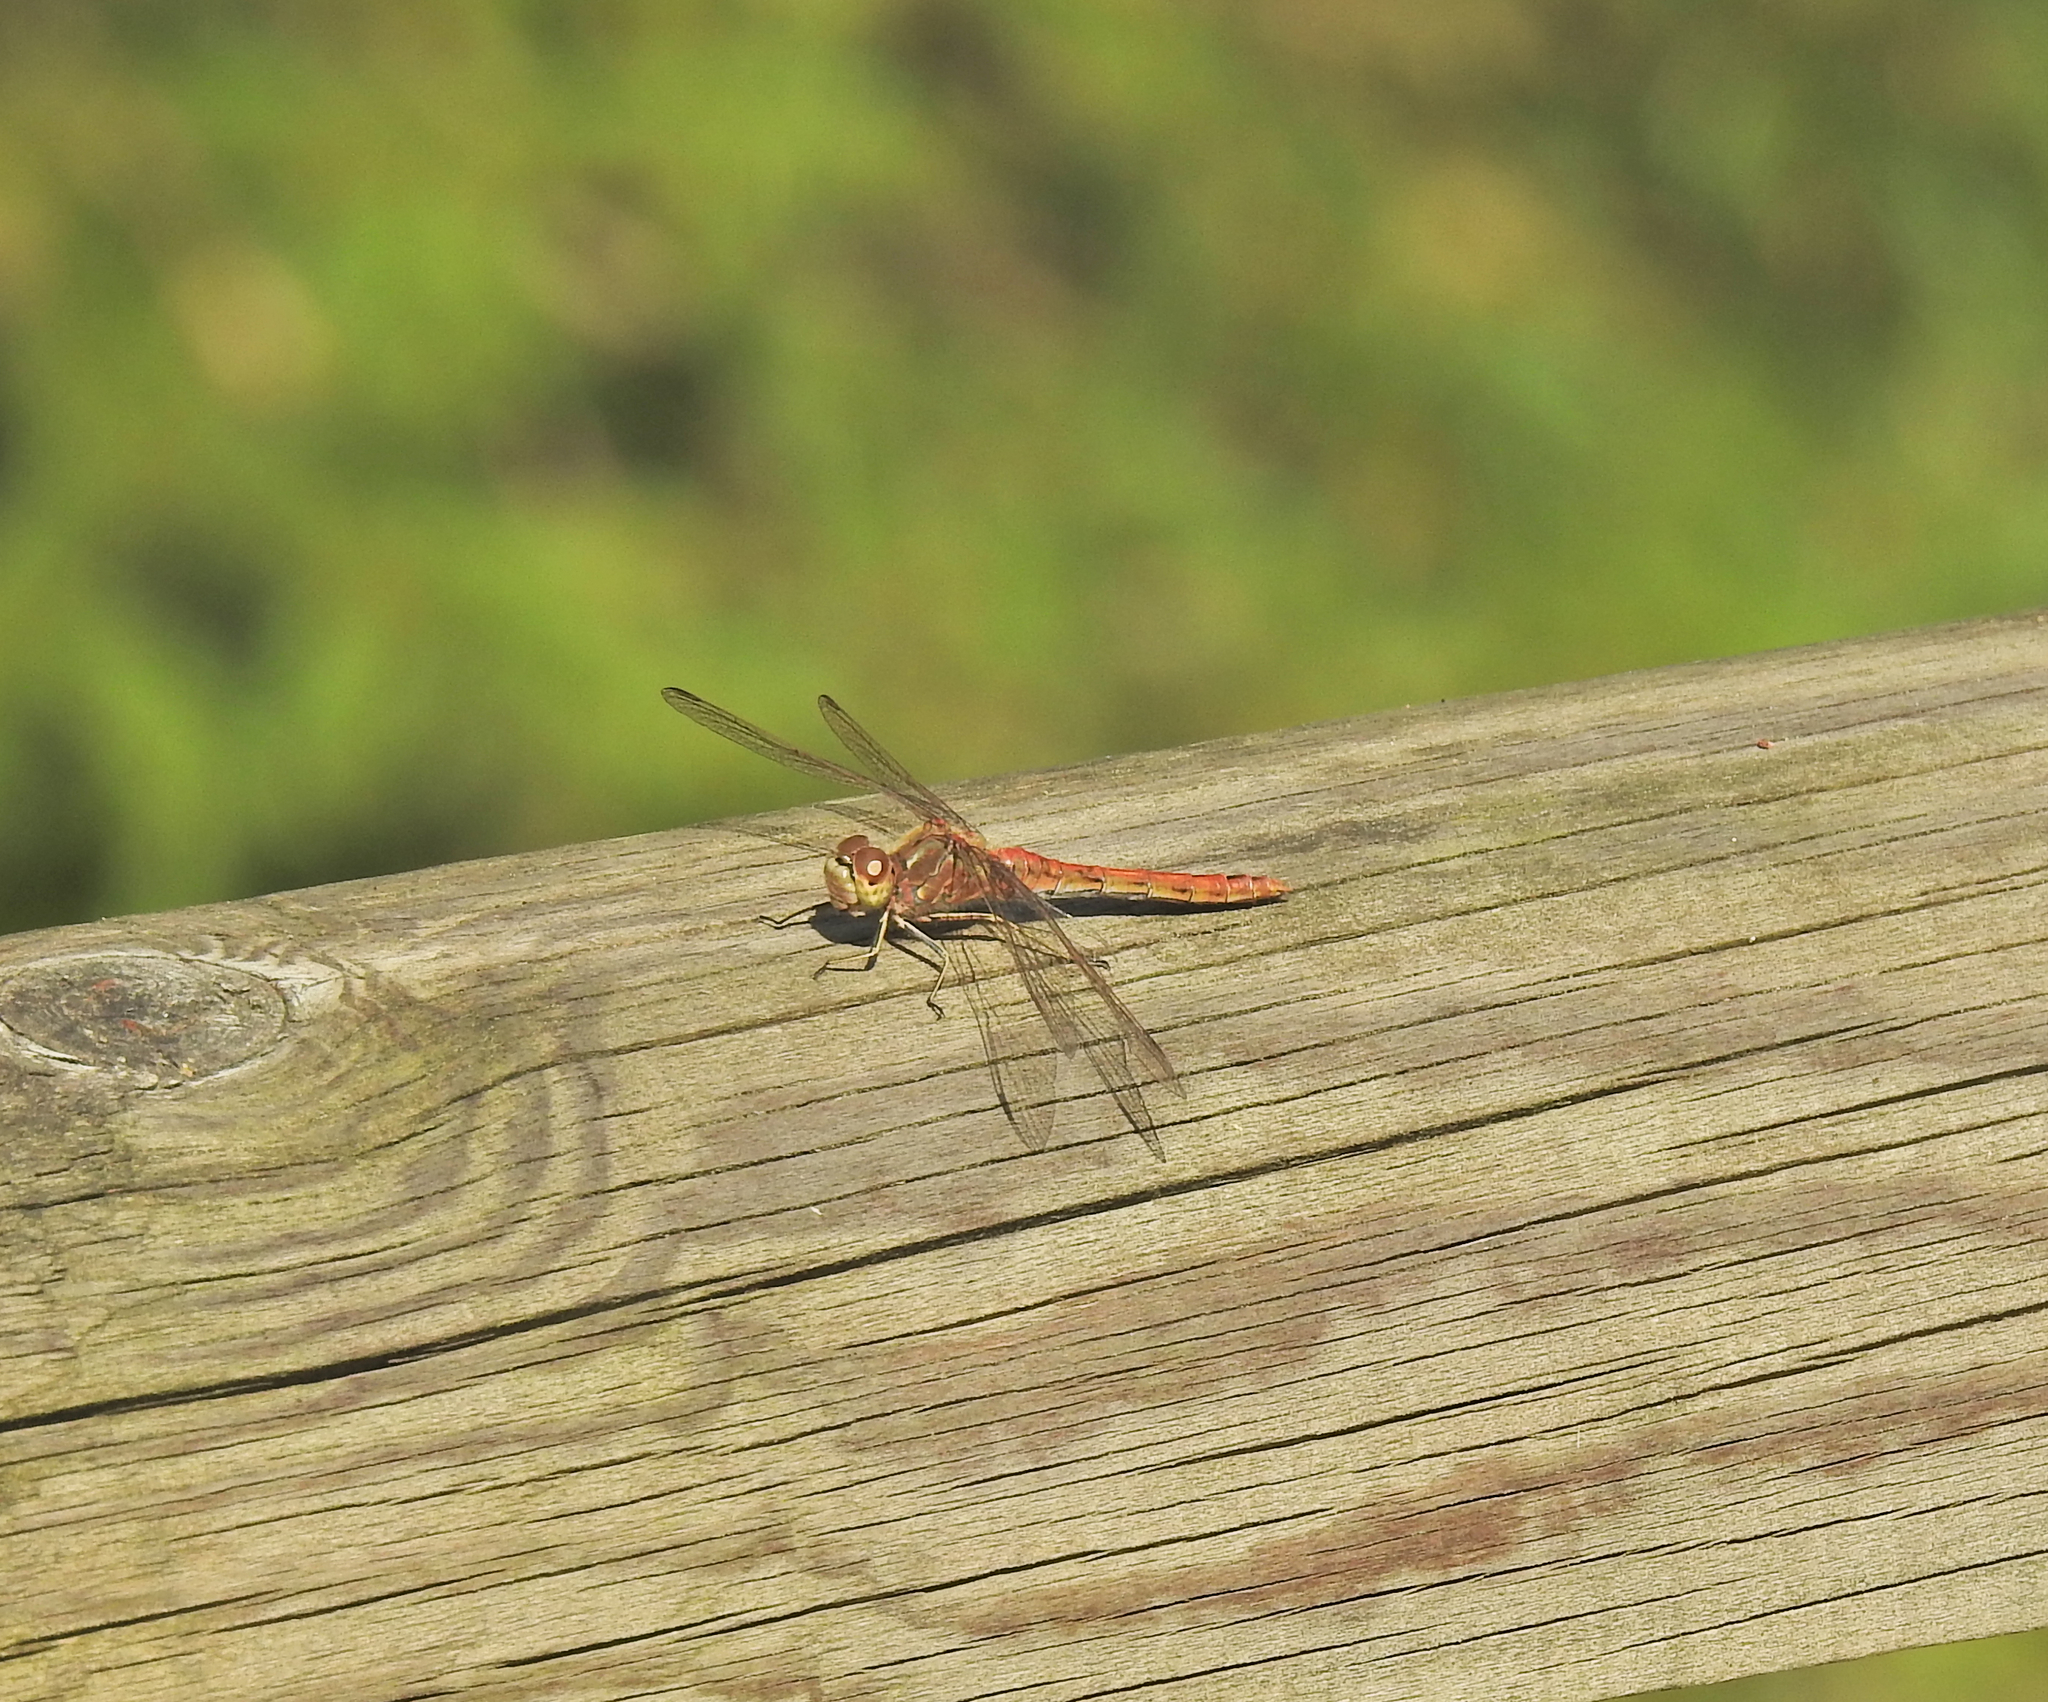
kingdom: Animalia
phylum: Arthropoda
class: Insecta
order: Odonata
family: Libellulidae
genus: Sympetrum
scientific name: Sympetrum vulgatum
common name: Vagrant darter
